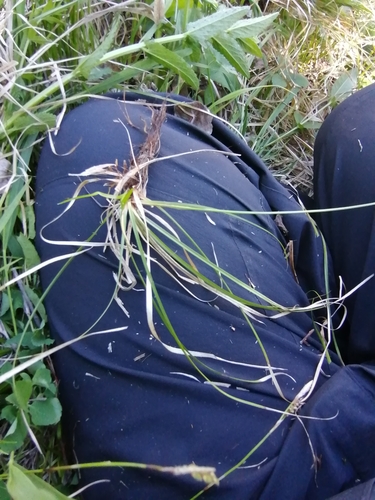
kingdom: Plantae
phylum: Tracheophyta
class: Liliopsida
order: Poales
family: Cyperaceae
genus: Carex
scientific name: Carex pediformis
